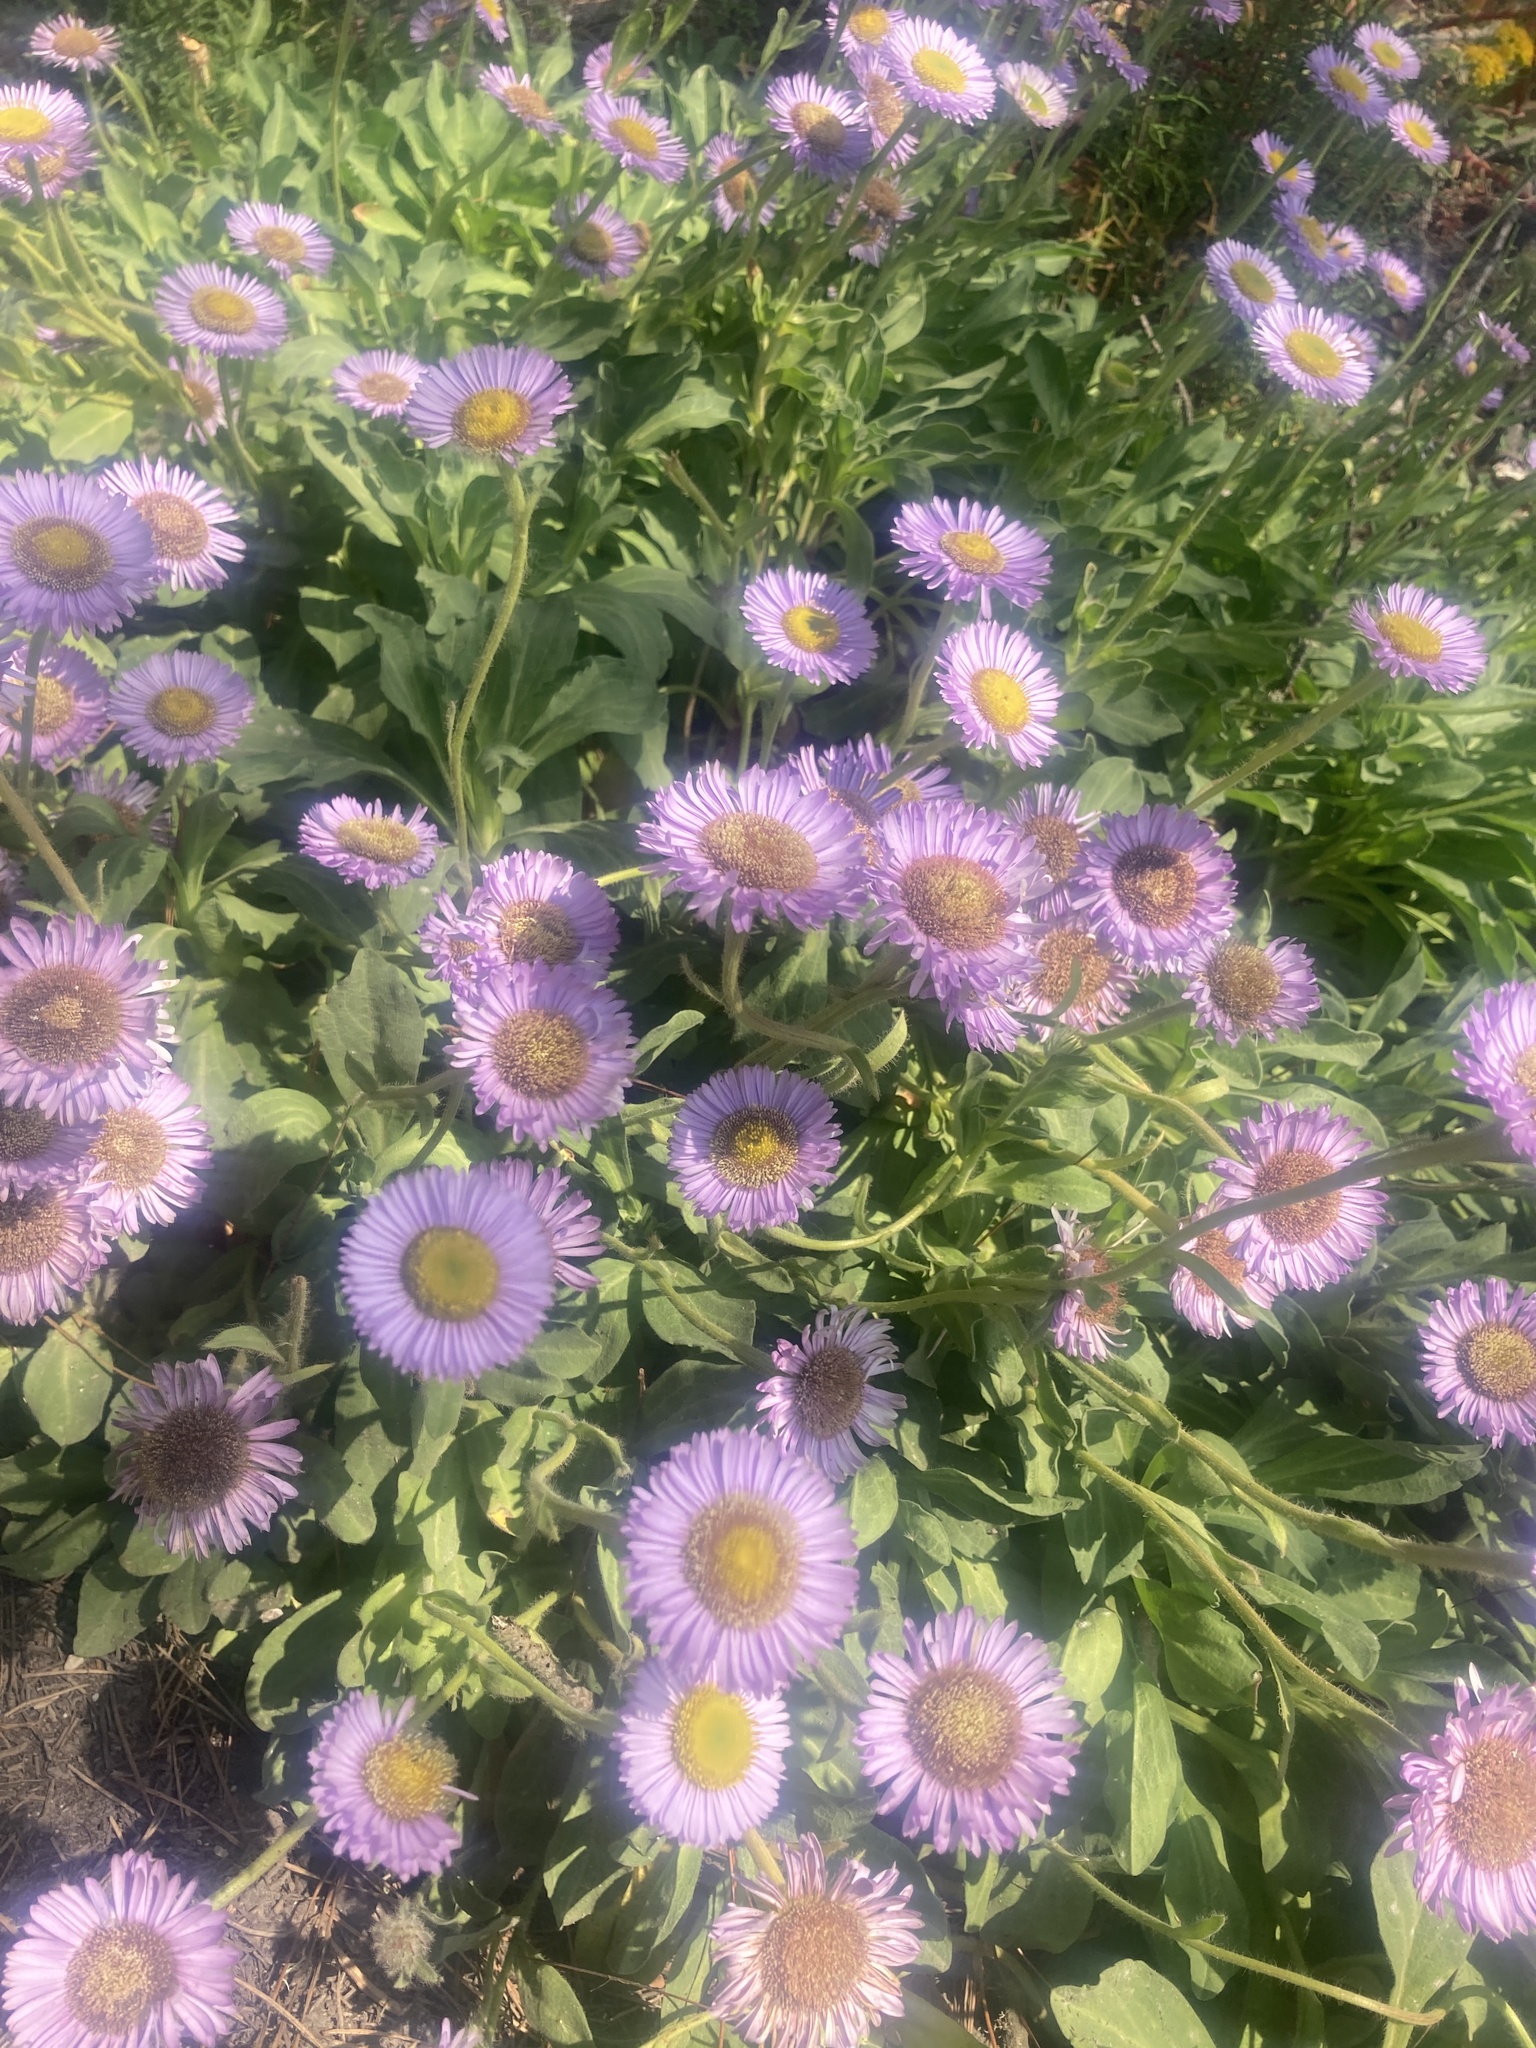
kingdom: Plantae
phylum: Tracheophyta
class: Magnoliopsida
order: Asterales
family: Asteraceae
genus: Erigeron
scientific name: Erigeron glaucus
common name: Seaside daisy
